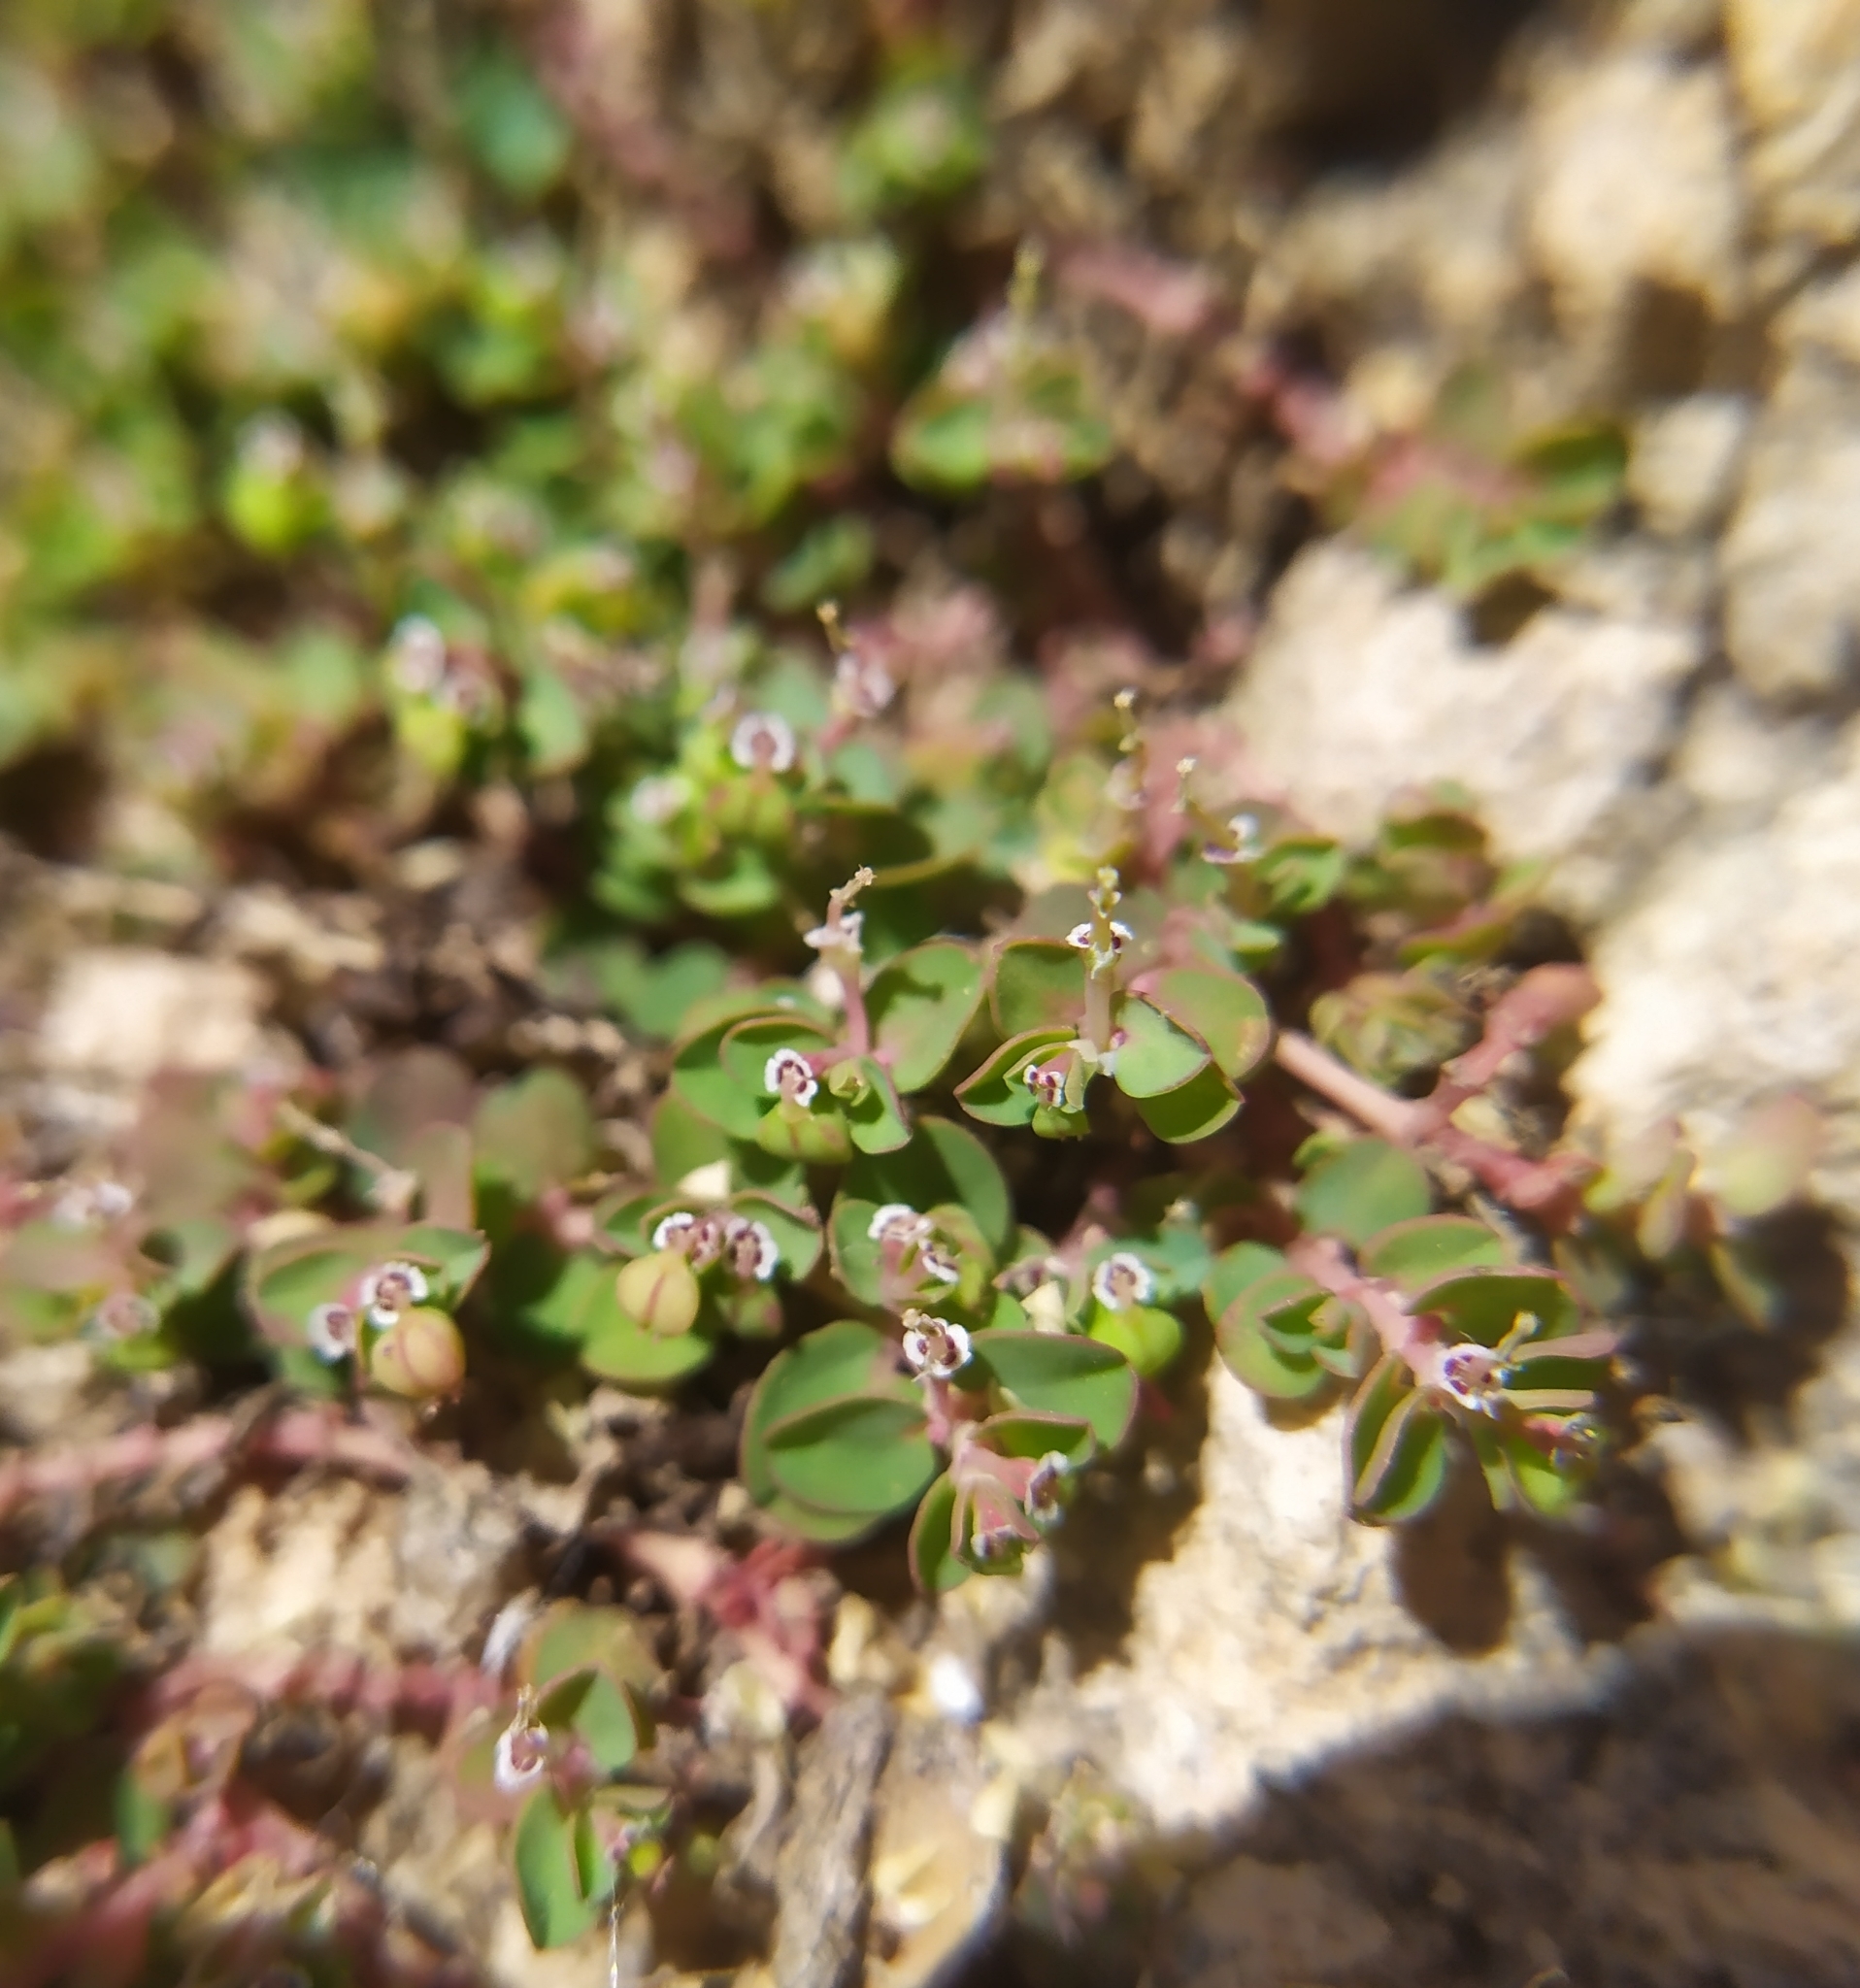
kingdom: Plantae
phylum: Tracheophyta
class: Magnoliopsida
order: Malpighiales
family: Euphorbiaceae
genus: Euphorbia
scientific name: Euphorbia serpens
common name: Matted sandmat
